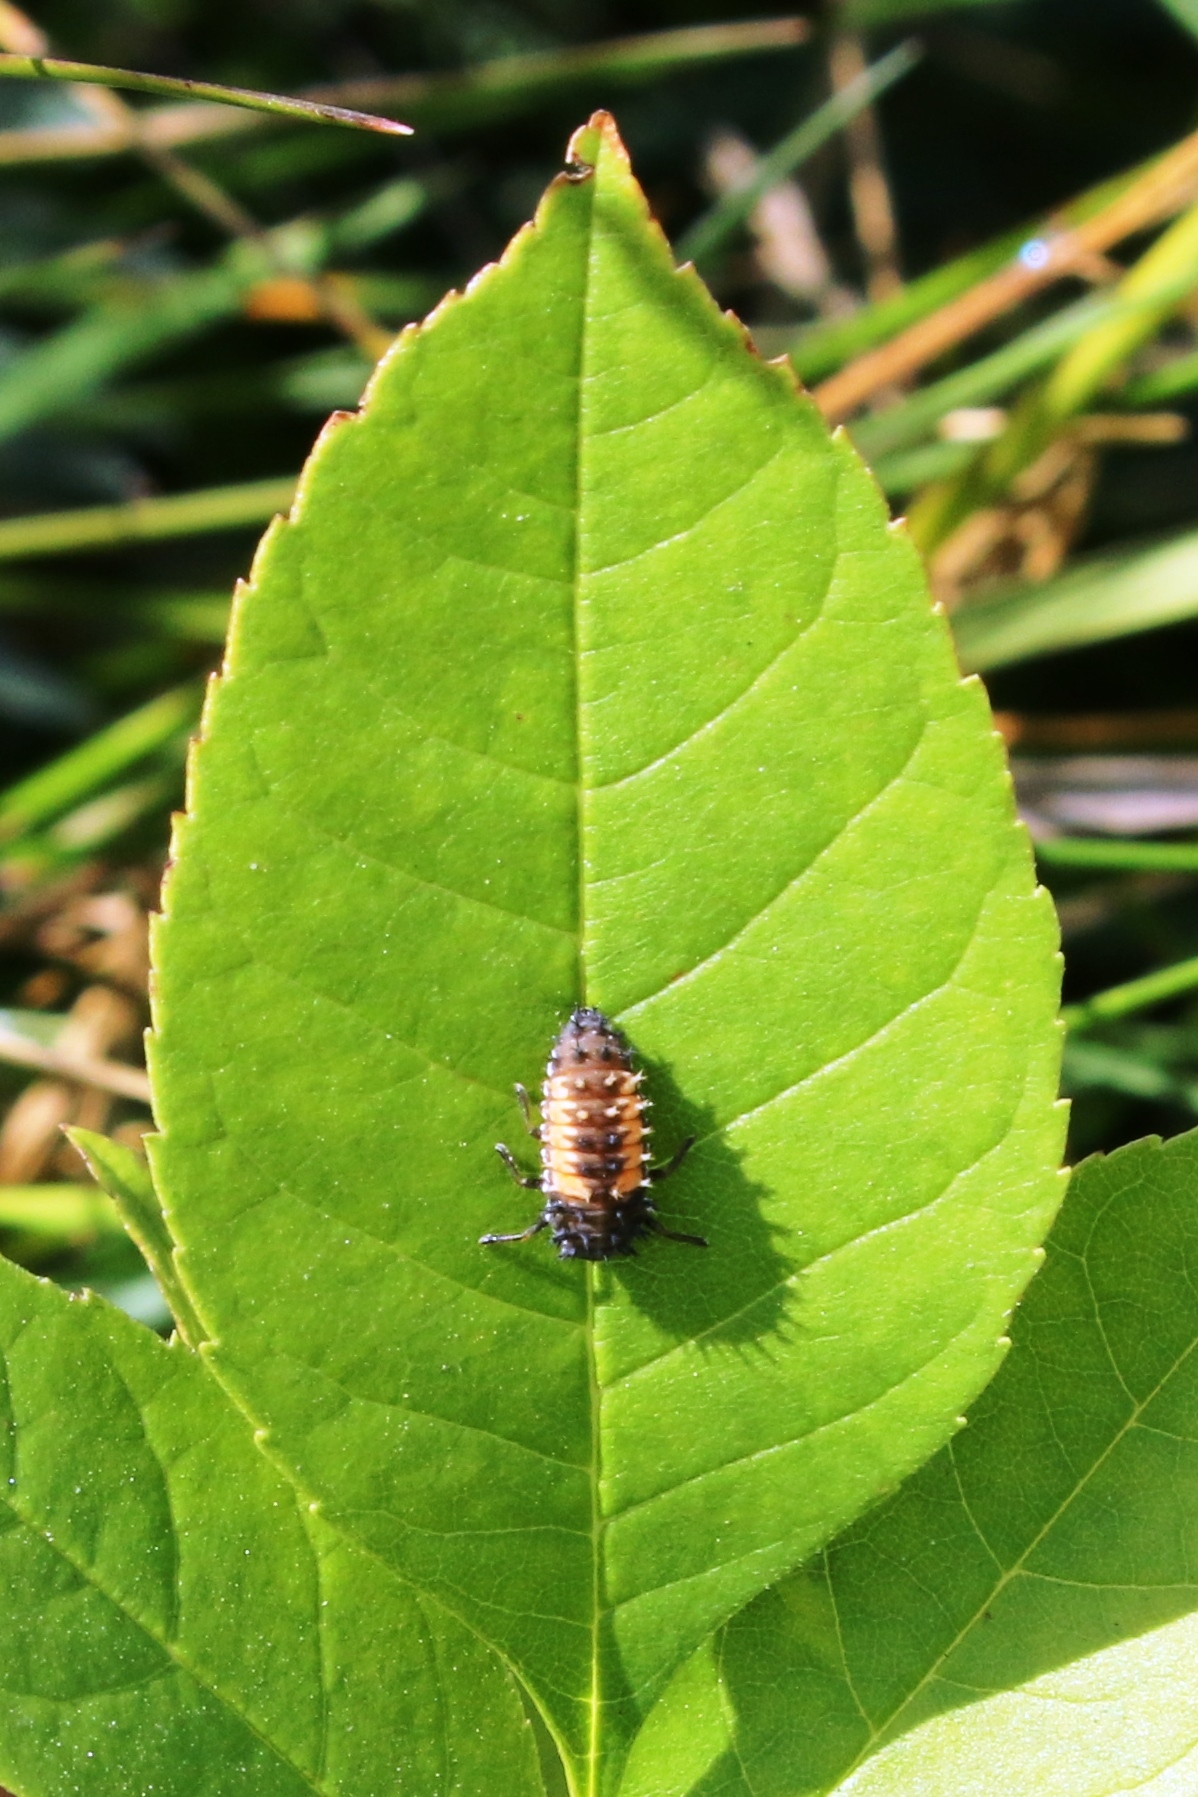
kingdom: Animalia
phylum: Arthropoda
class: Insecta
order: Coleoptera
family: Coccinellidae
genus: Harmonia
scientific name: Harmonia axyridis
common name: Harlequin ladybird
